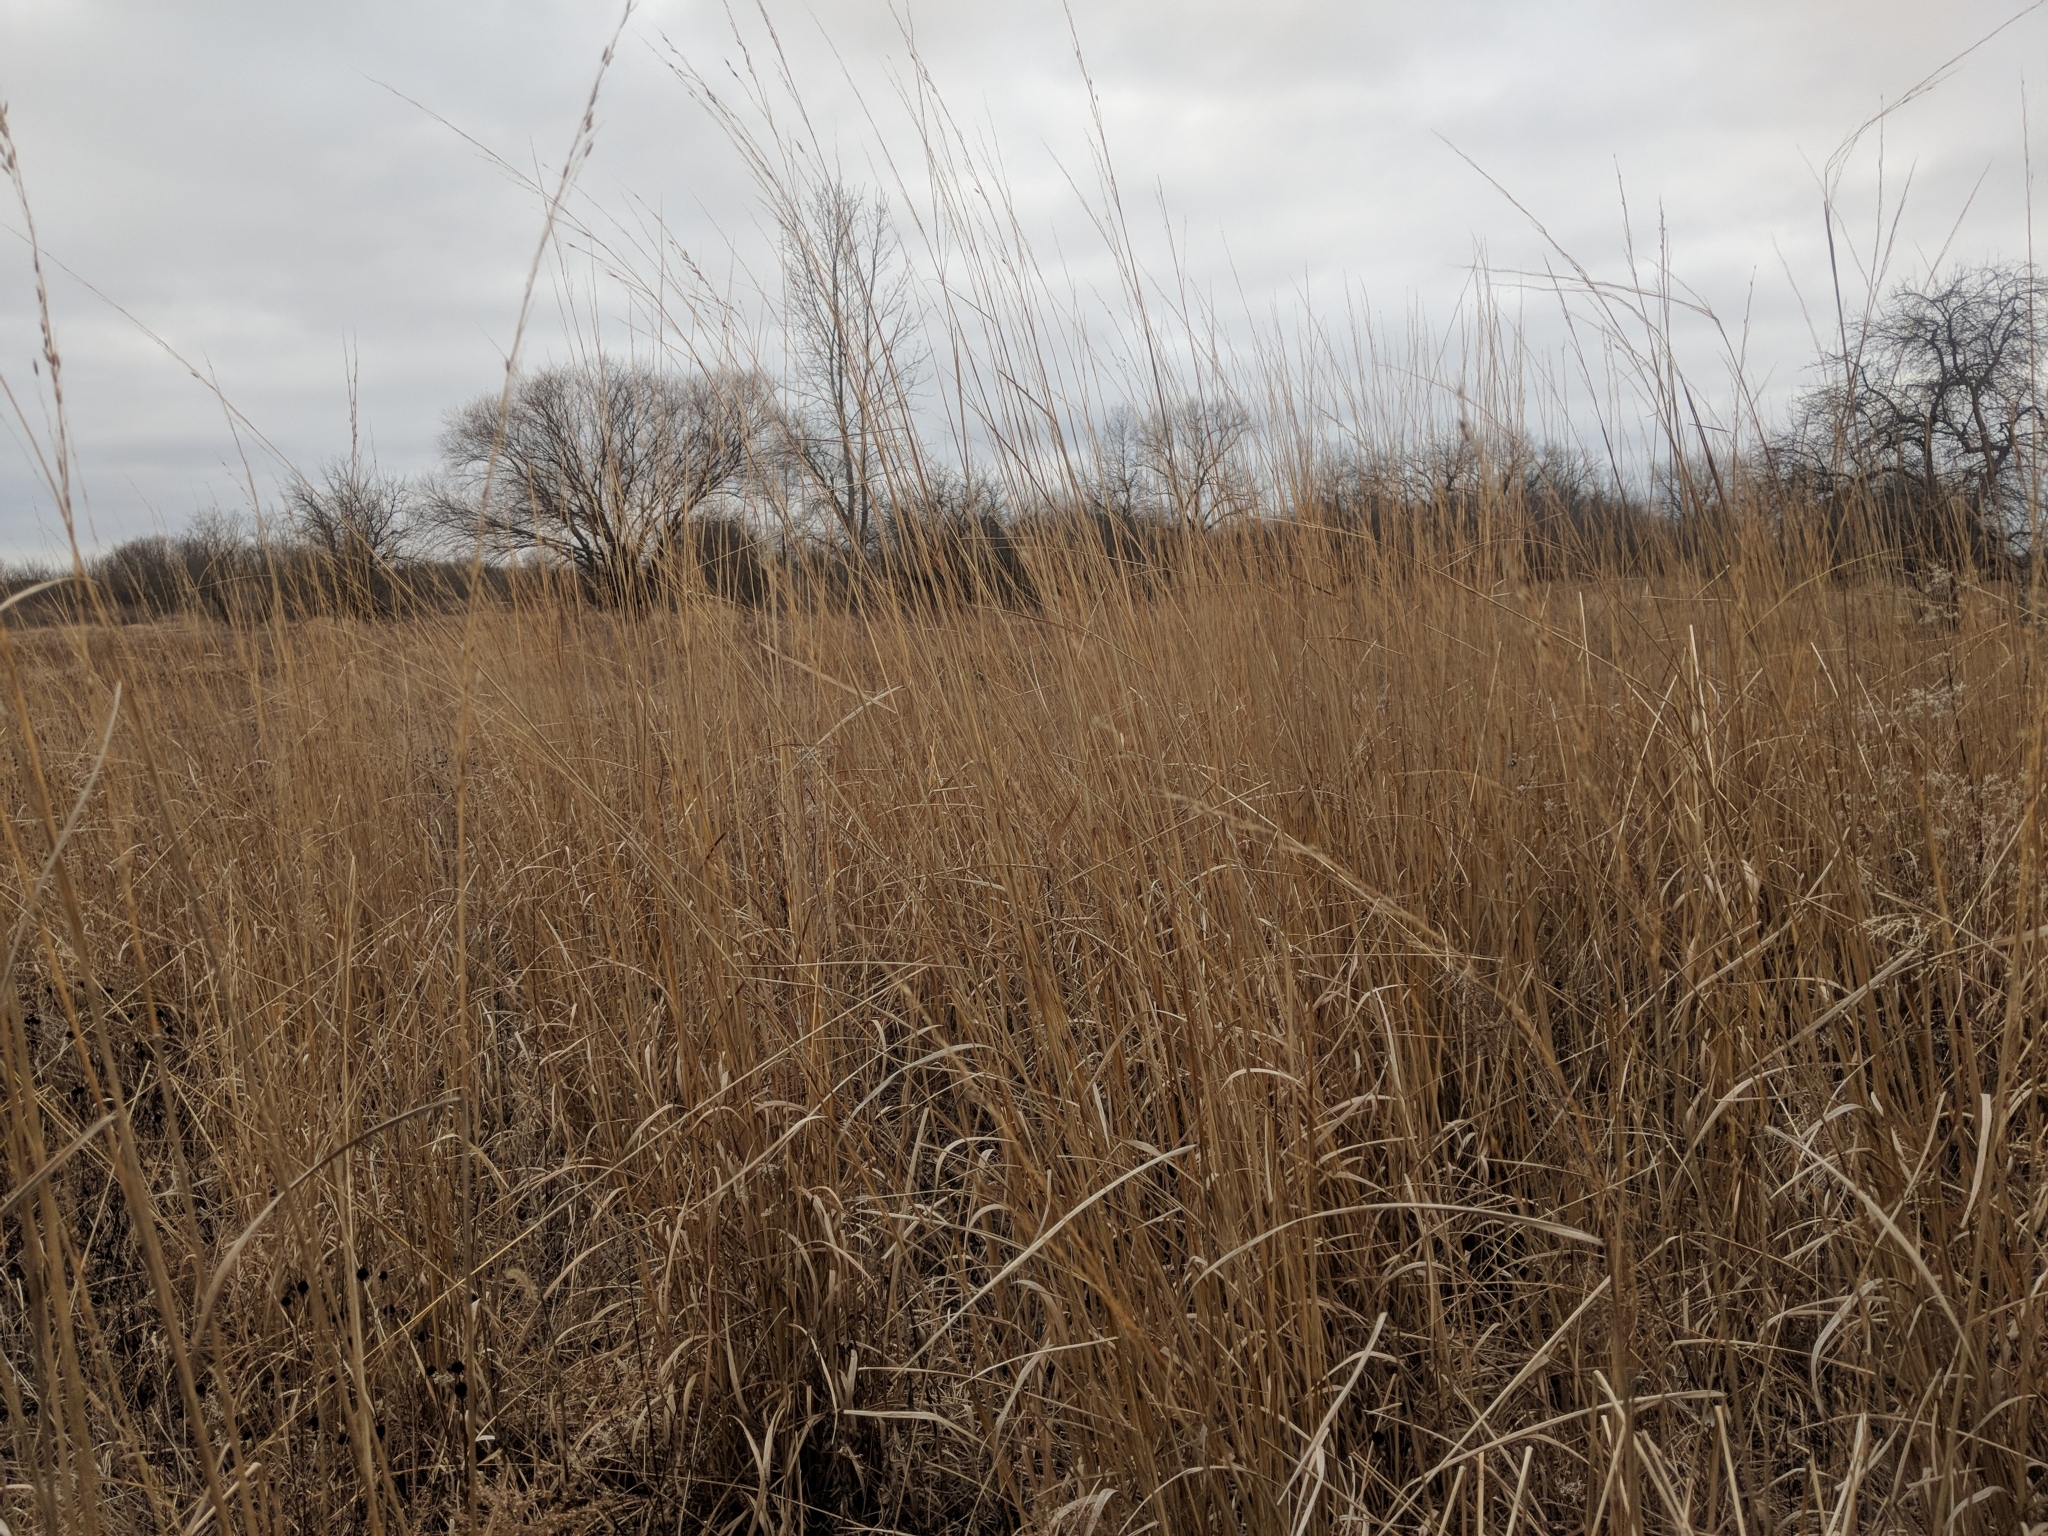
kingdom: Plantae
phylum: Tracheophyta
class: Liliopsida
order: Poales
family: Poaceae
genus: Sorghastrum
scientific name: Sorghastrum nutans
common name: Indian grass
